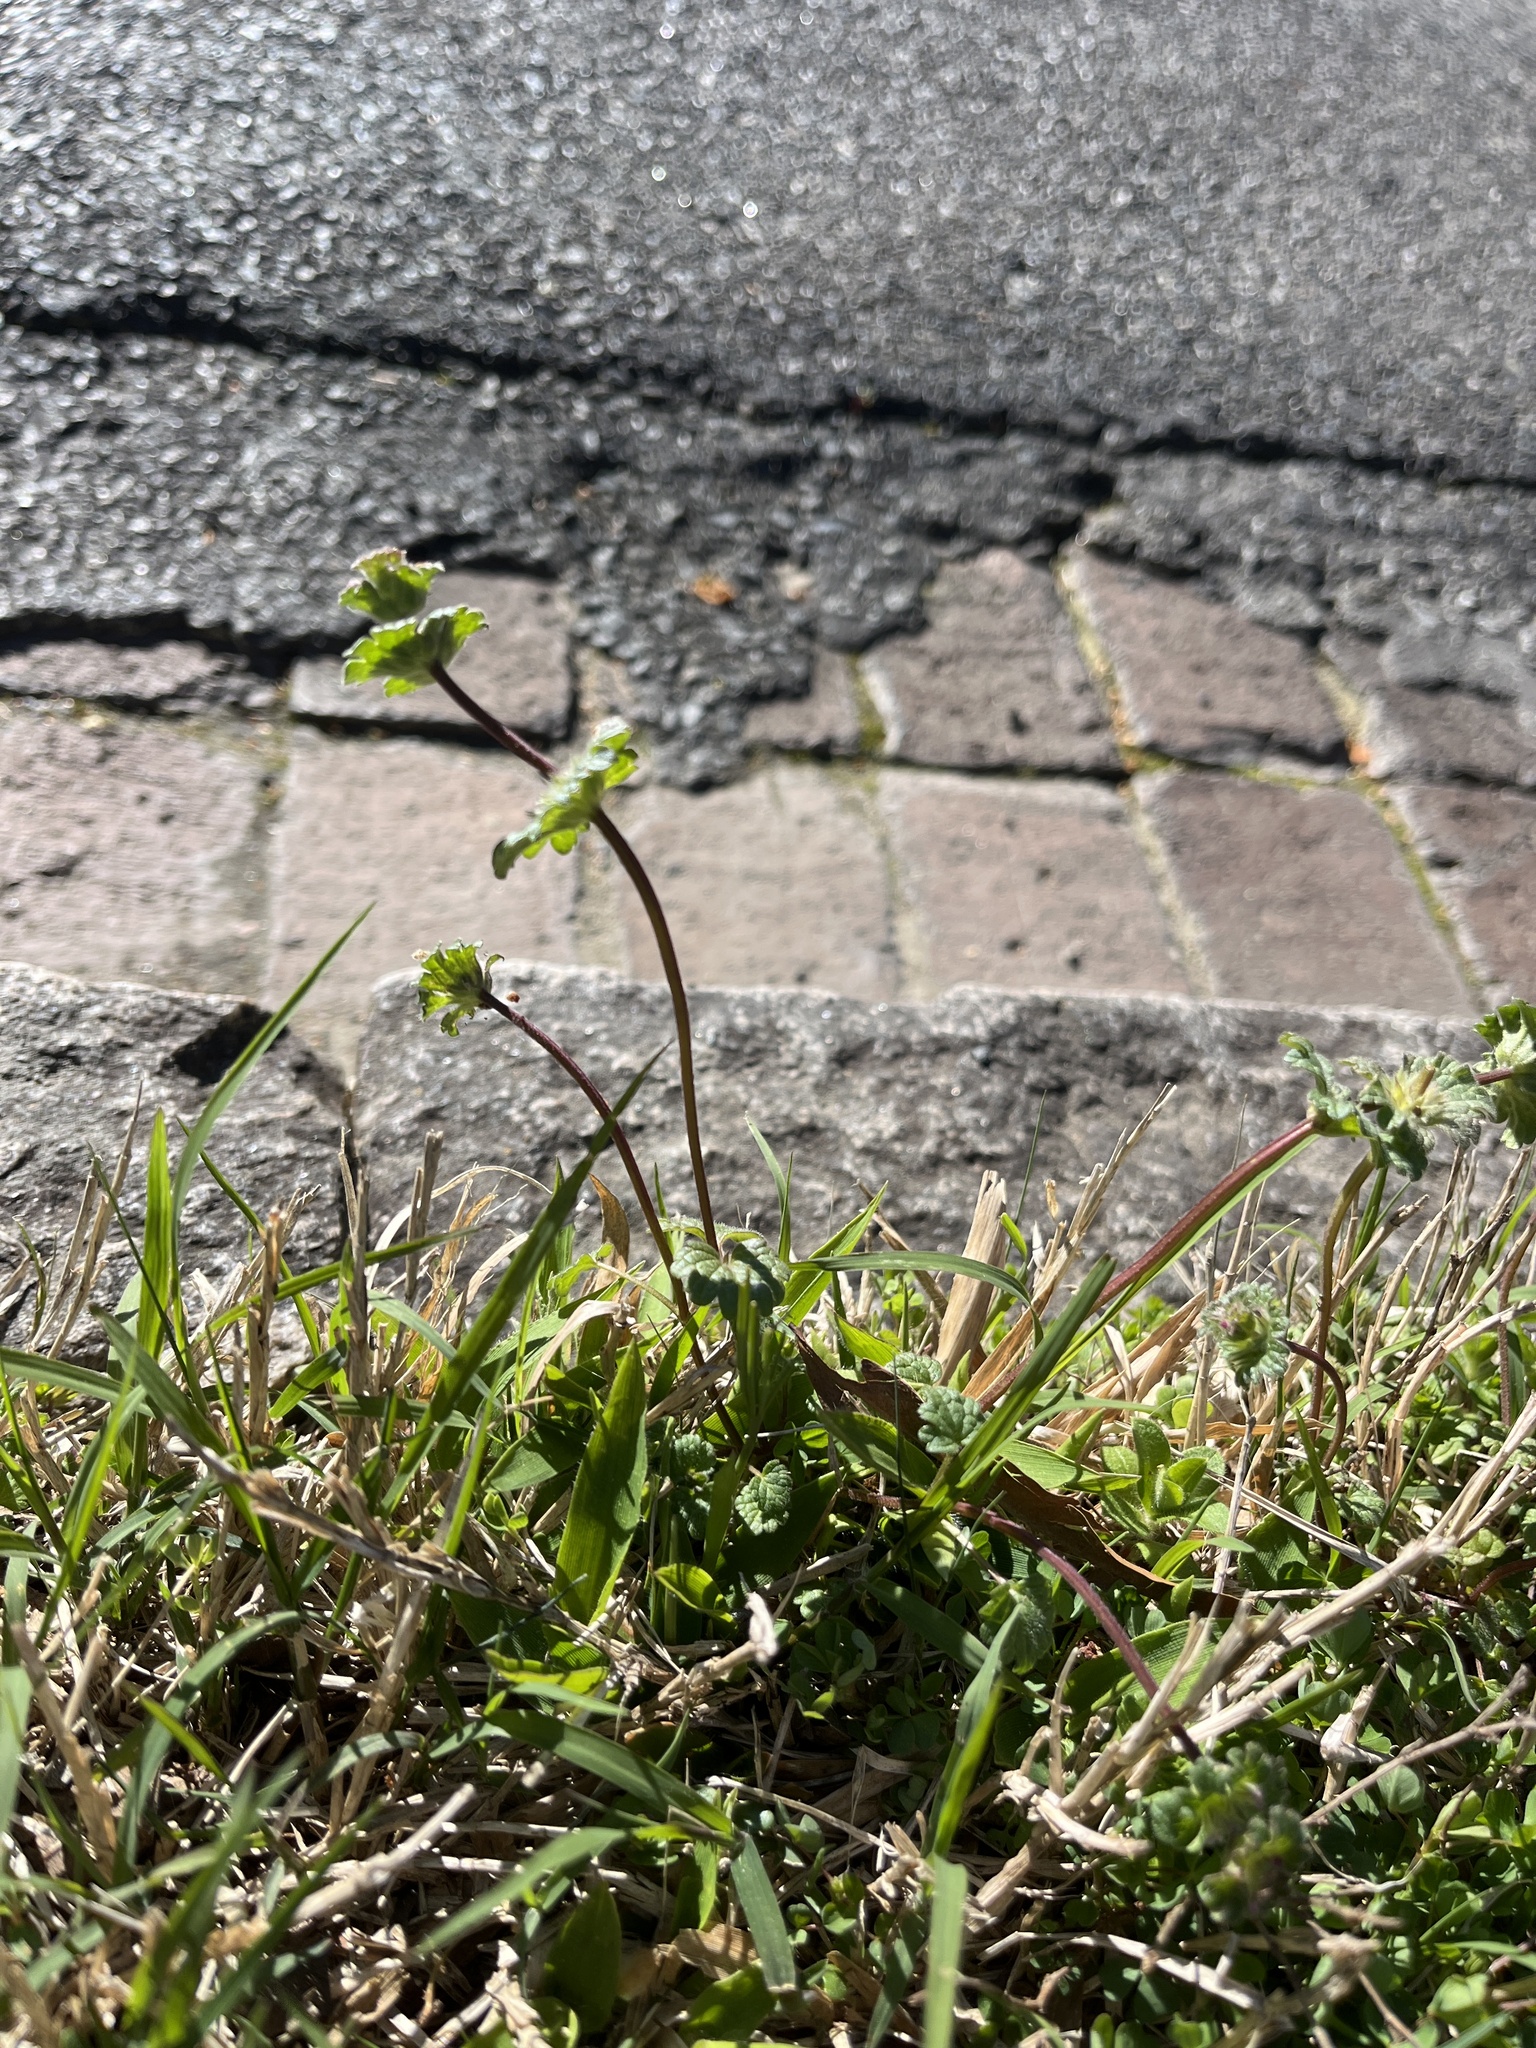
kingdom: Plantae
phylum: Tracheophyta
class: Magnoliopsida
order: Lamiales
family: Lamiaceae
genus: Lamium
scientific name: Lamium amplexicaule
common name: Henbit dead-nettle
